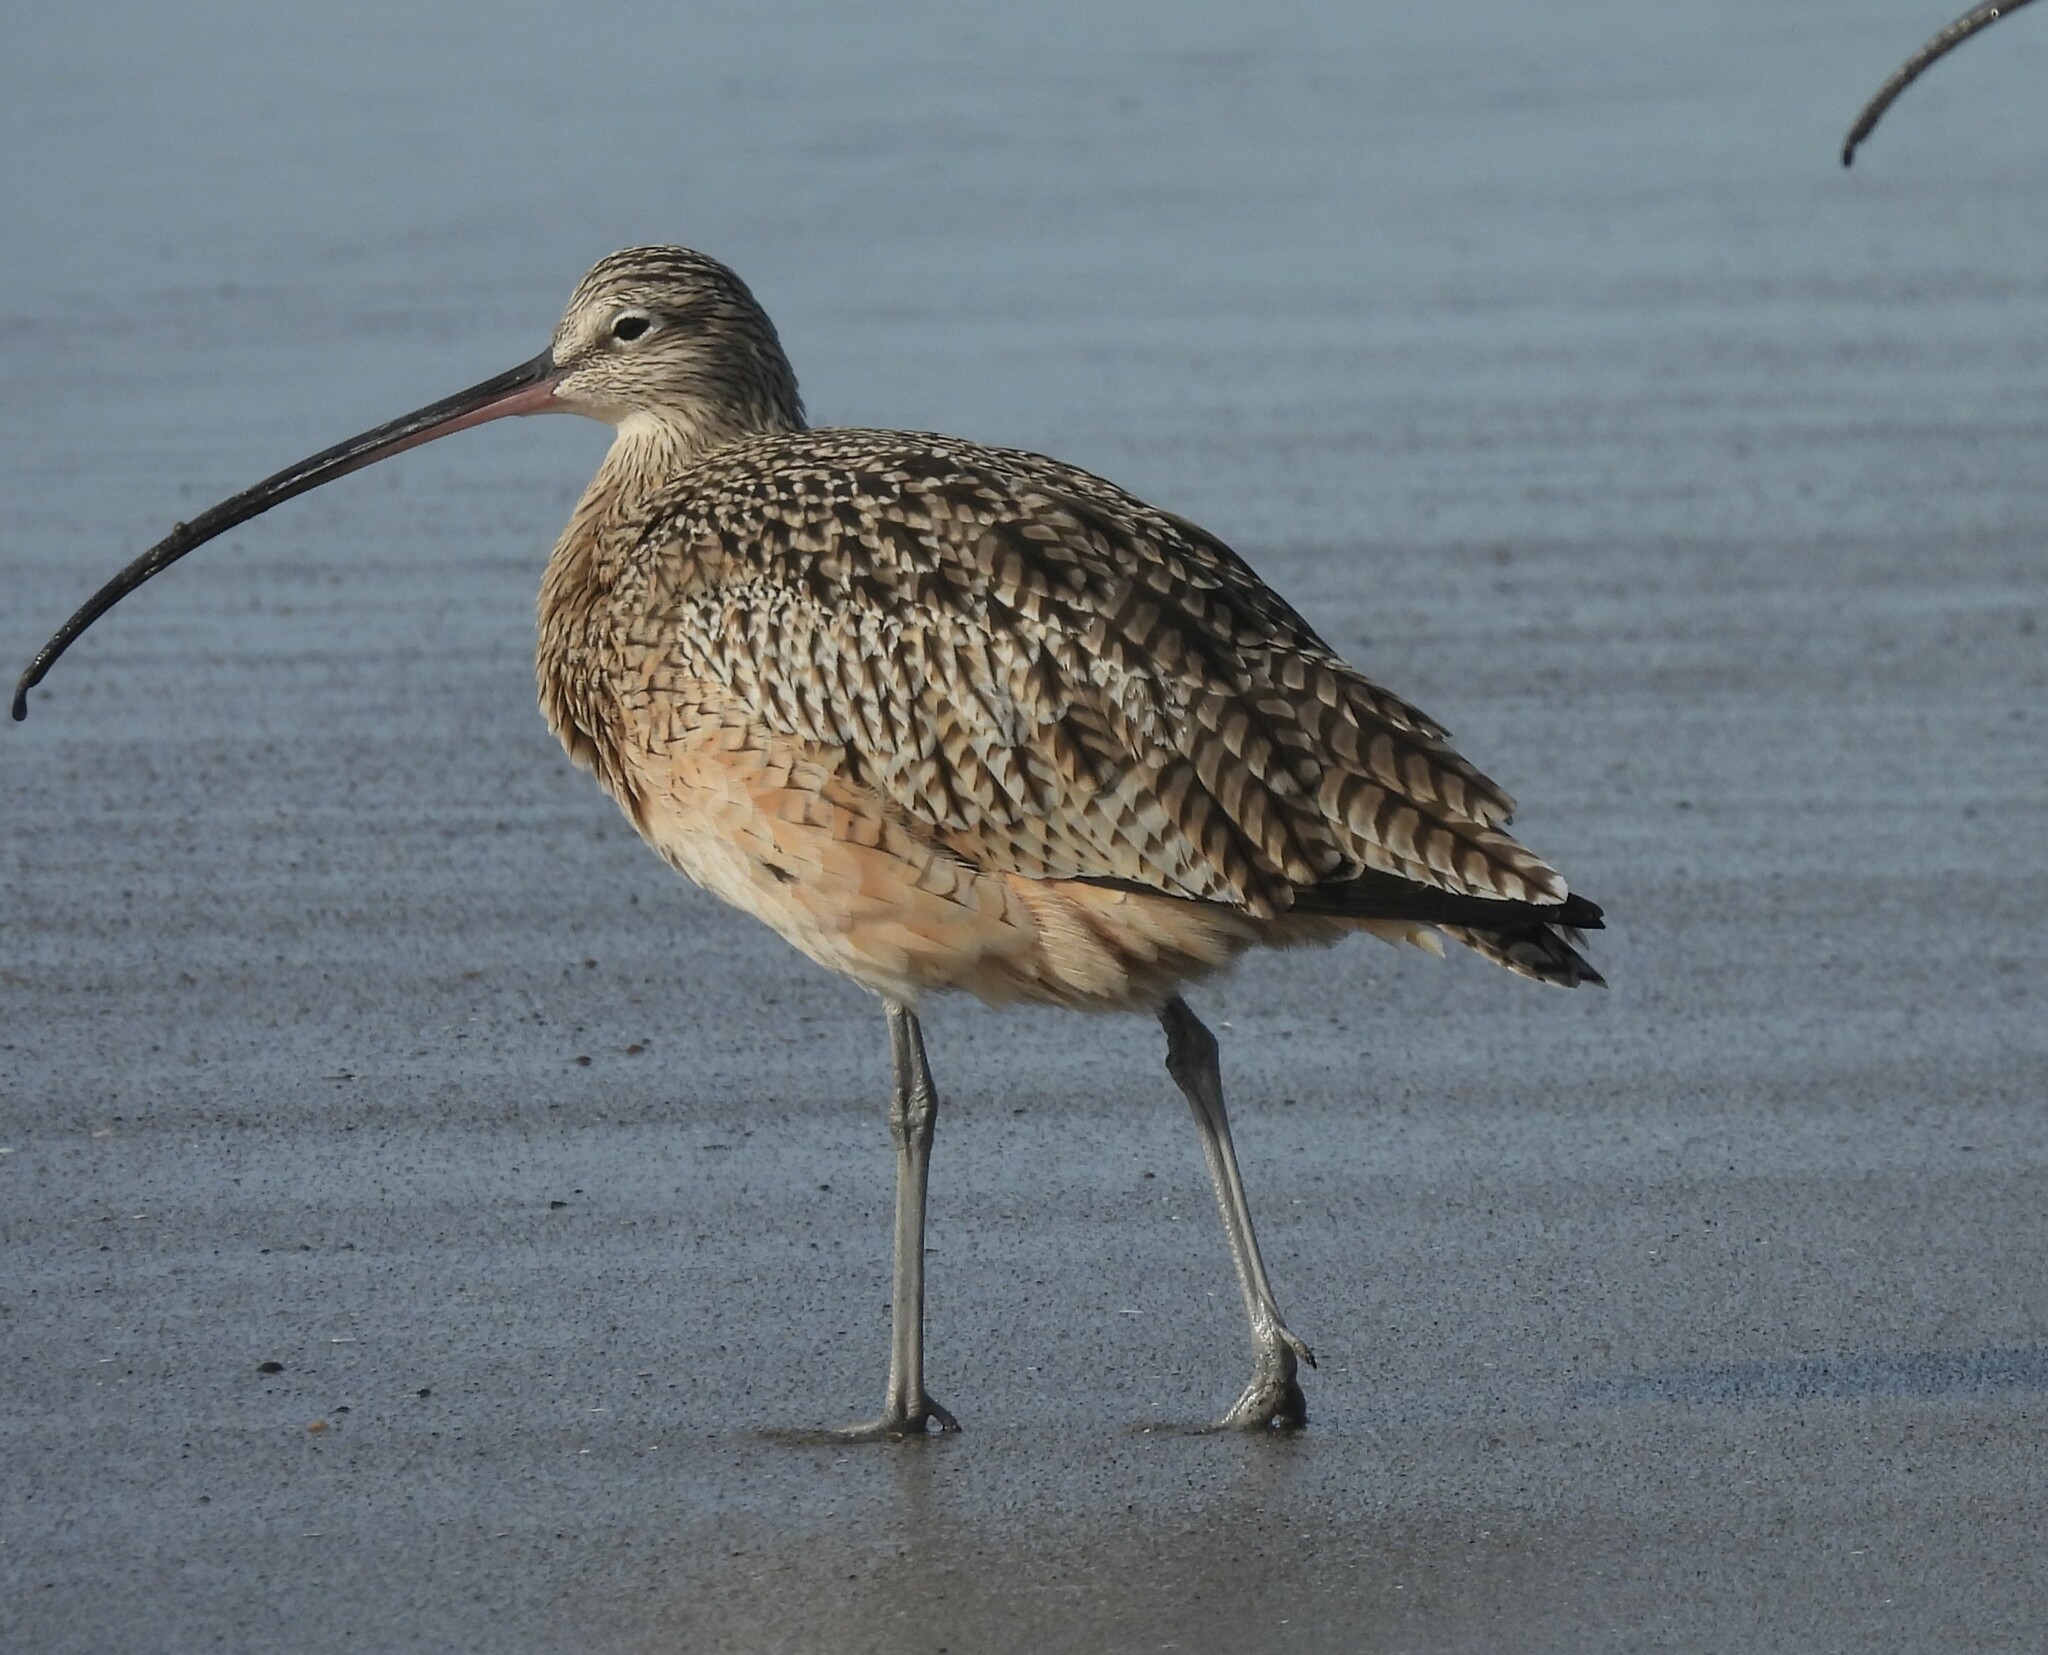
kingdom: Animalia
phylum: Chordata
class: Aves
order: Charadriiformes
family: Scolopacidae
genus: Numenius
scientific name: Numenius americanus
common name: Long-billed curlew
